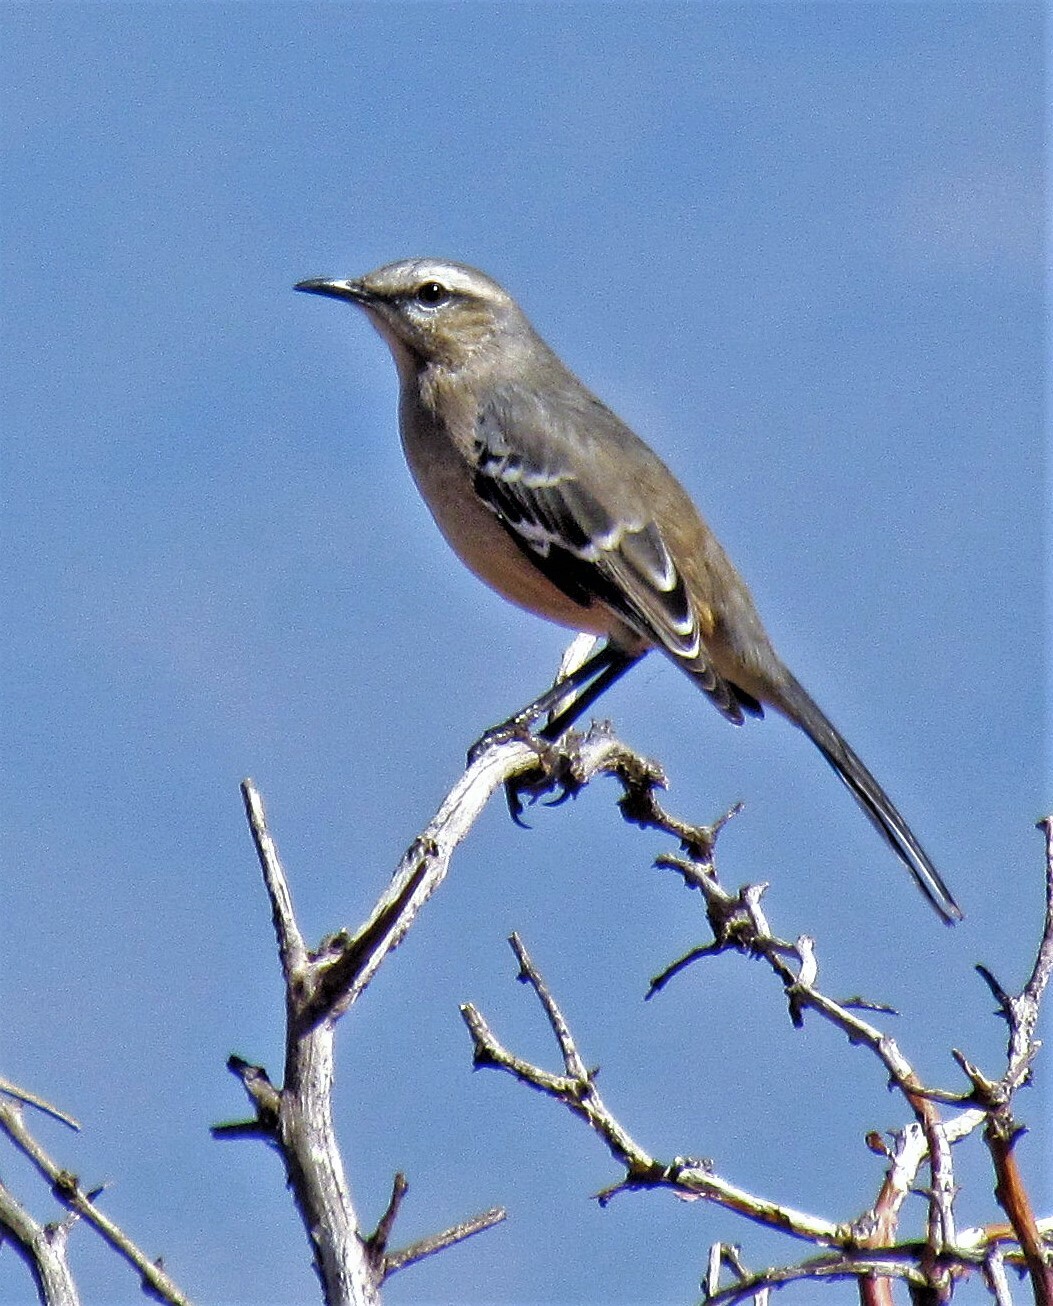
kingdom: Animalia
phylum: Chordata
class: Aves
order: Passeriformes
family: Mimidae
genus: Mimus
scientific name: Mimus patagonicus
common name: Patagonian mockingbird
